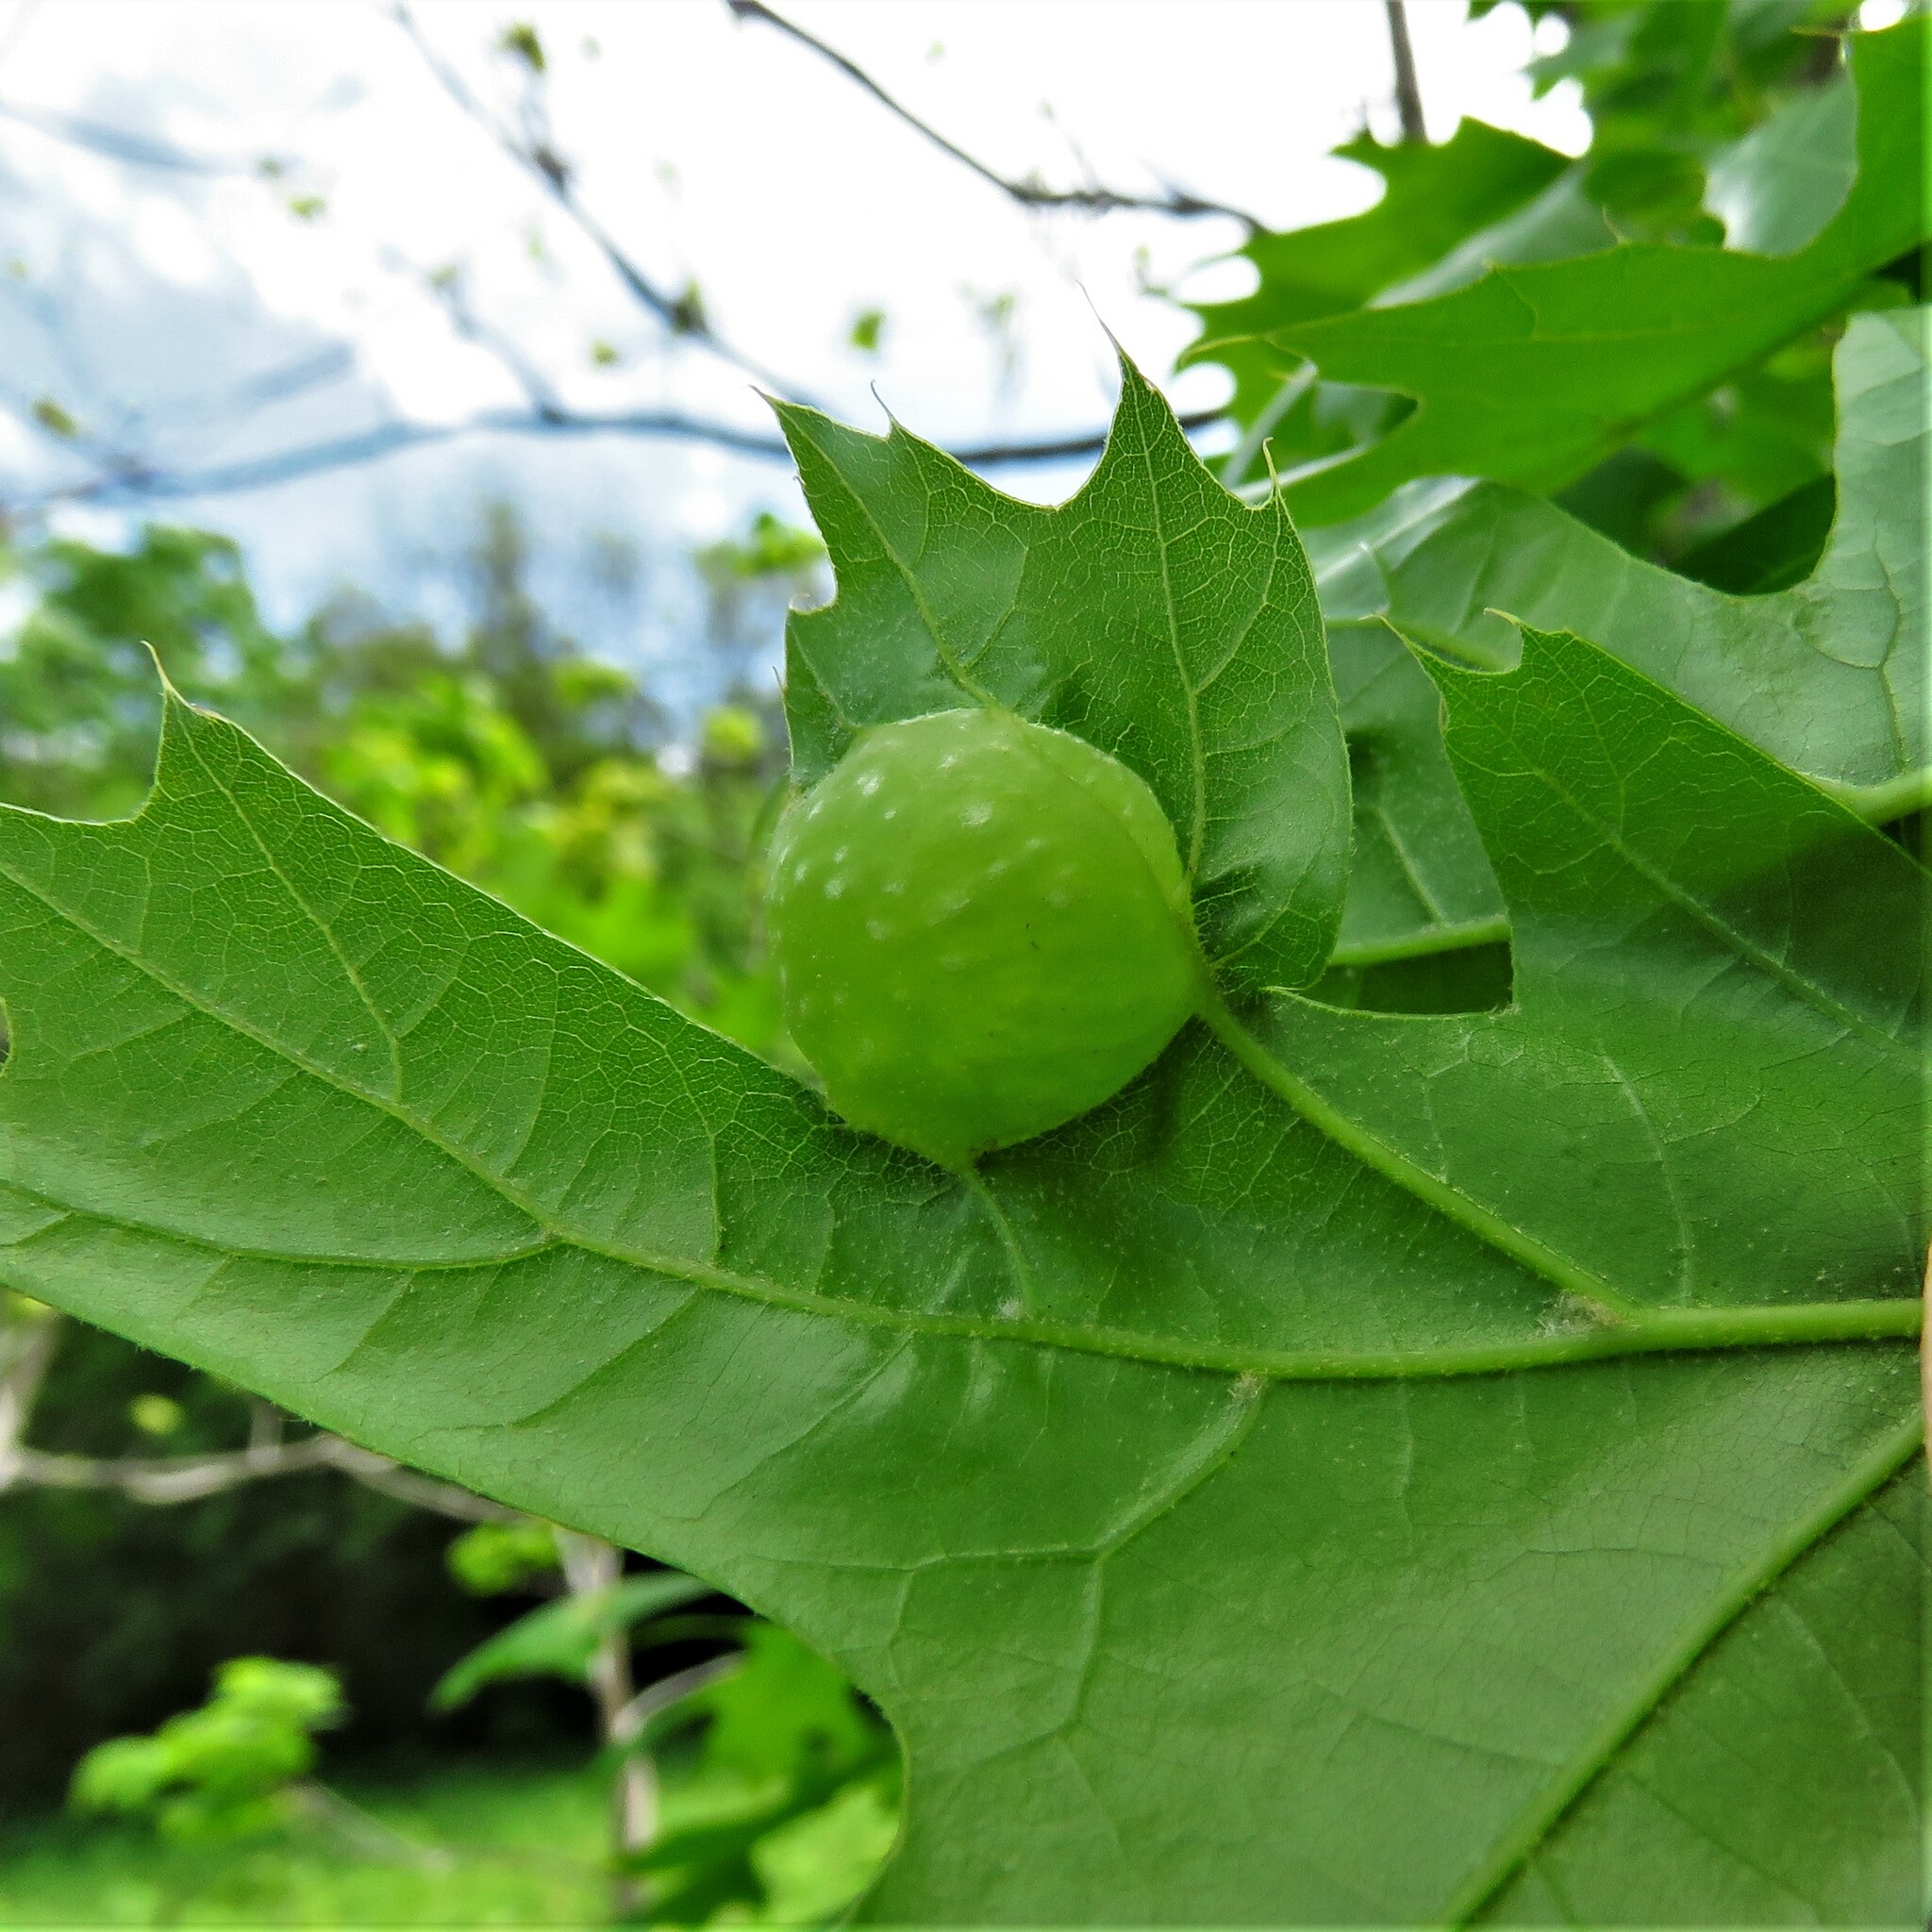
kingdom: Animalia
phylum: Arthropoda
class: Insecta
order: Hymenoptera
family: Cynipidae
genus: Dryocosmus
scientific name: Dryocosmus quercuspalustris
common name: Succulent oak gall wasp
